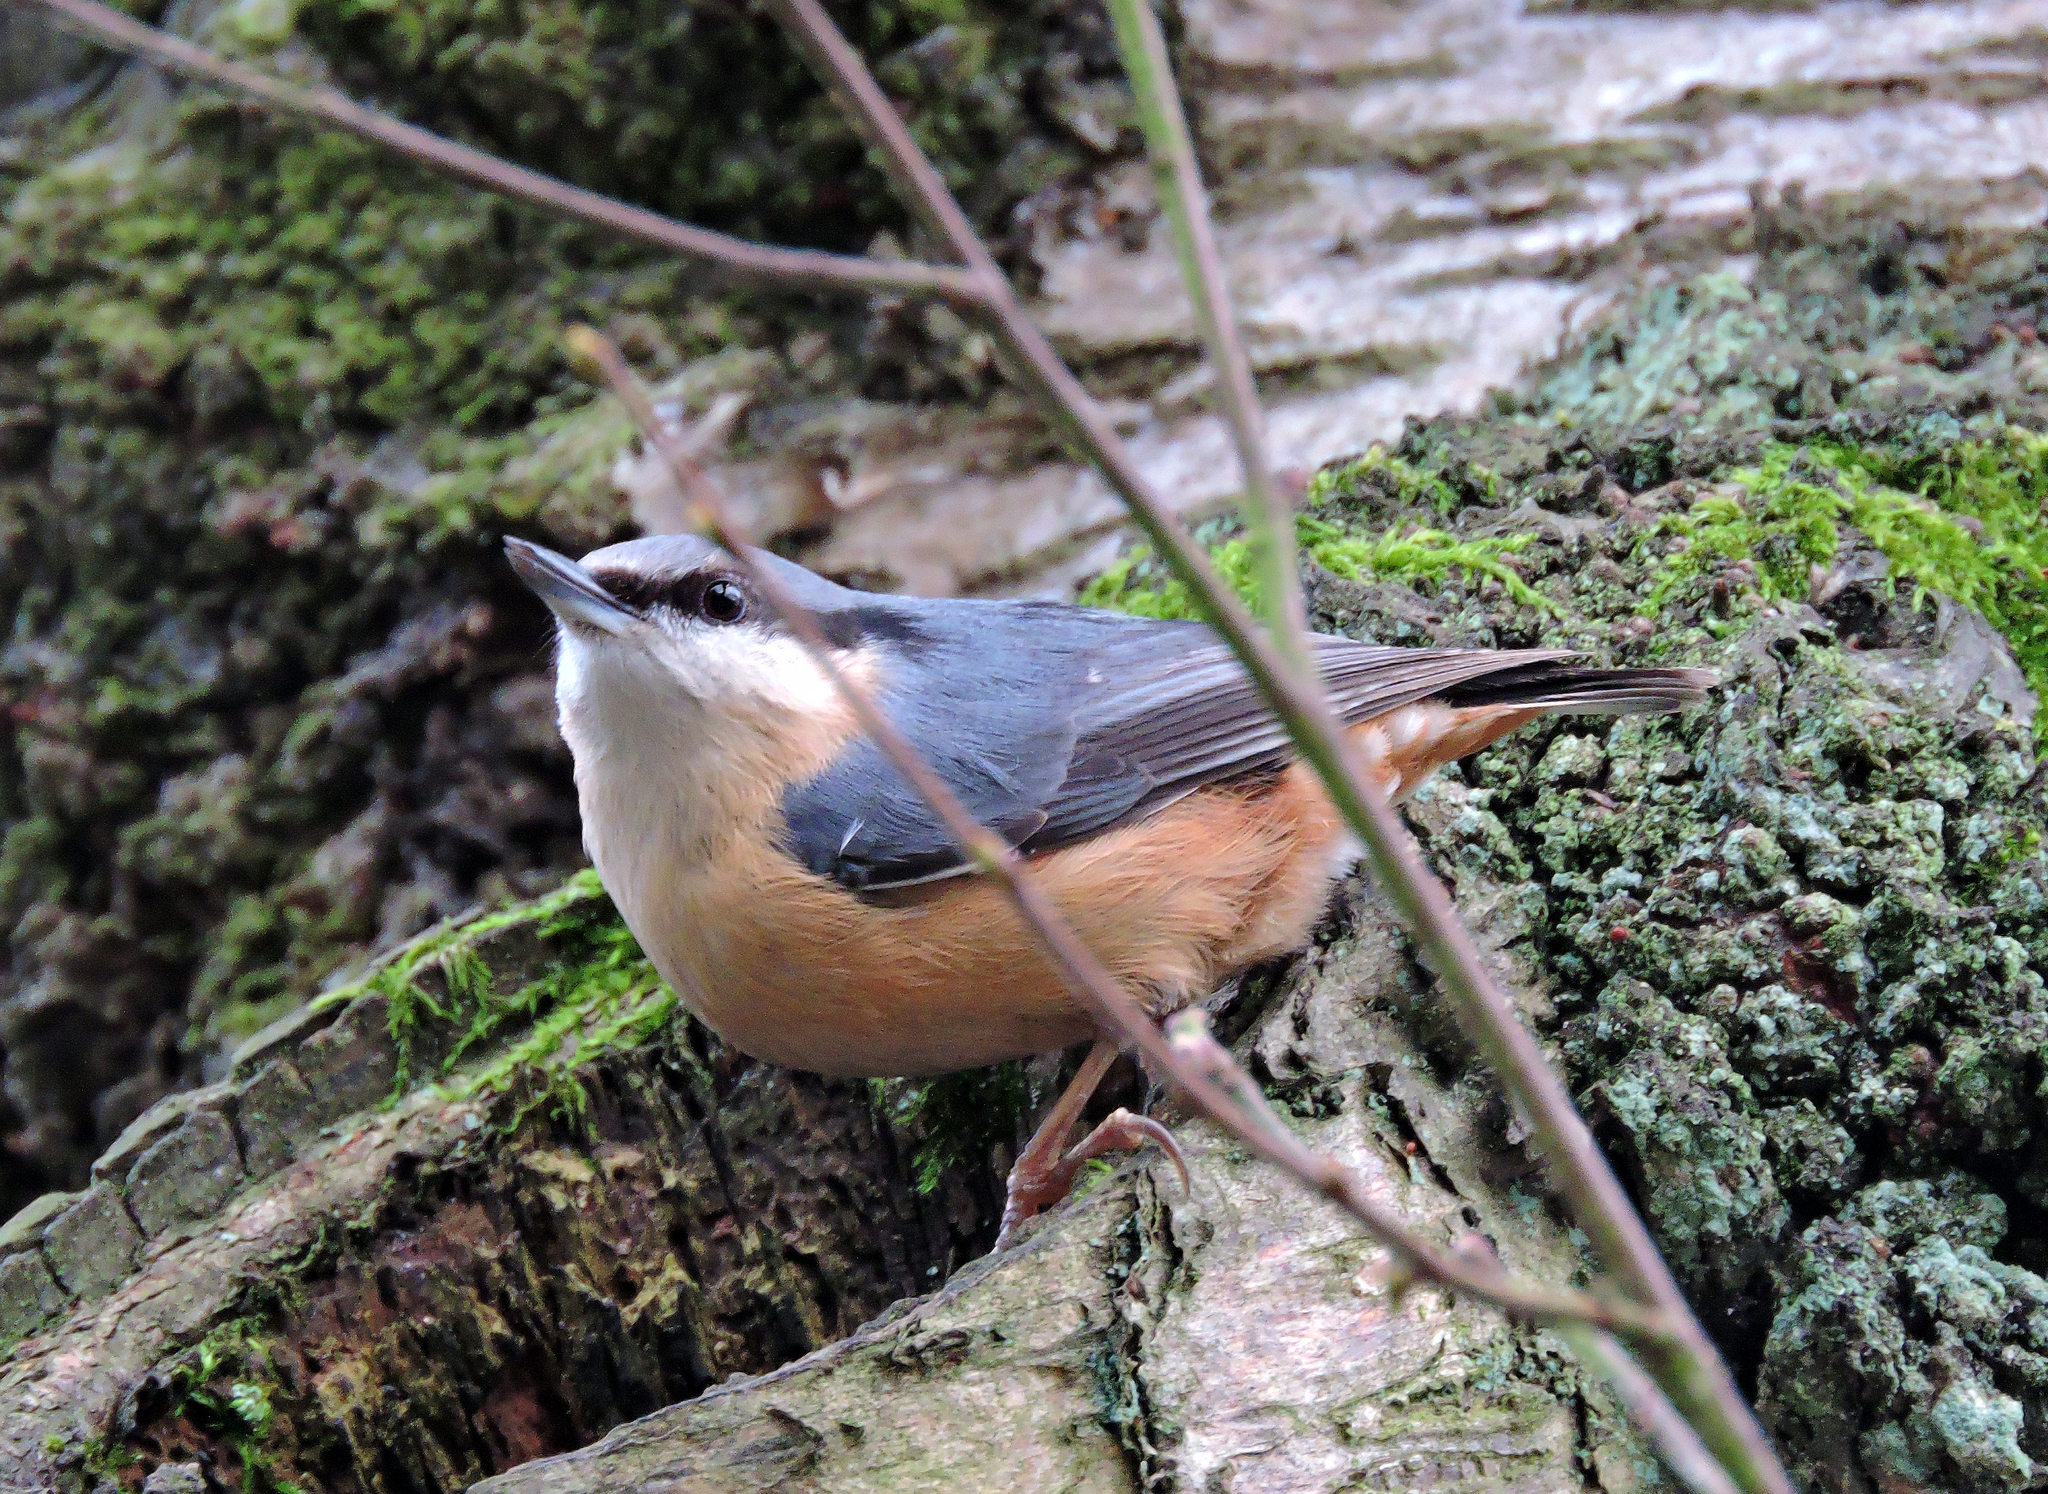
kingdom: Animalia
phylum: Chordata
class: Aves
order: Passeriformes
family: Sittidae
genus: Sitta
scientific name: Sitta europaea
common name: Eurasian nuthatch
